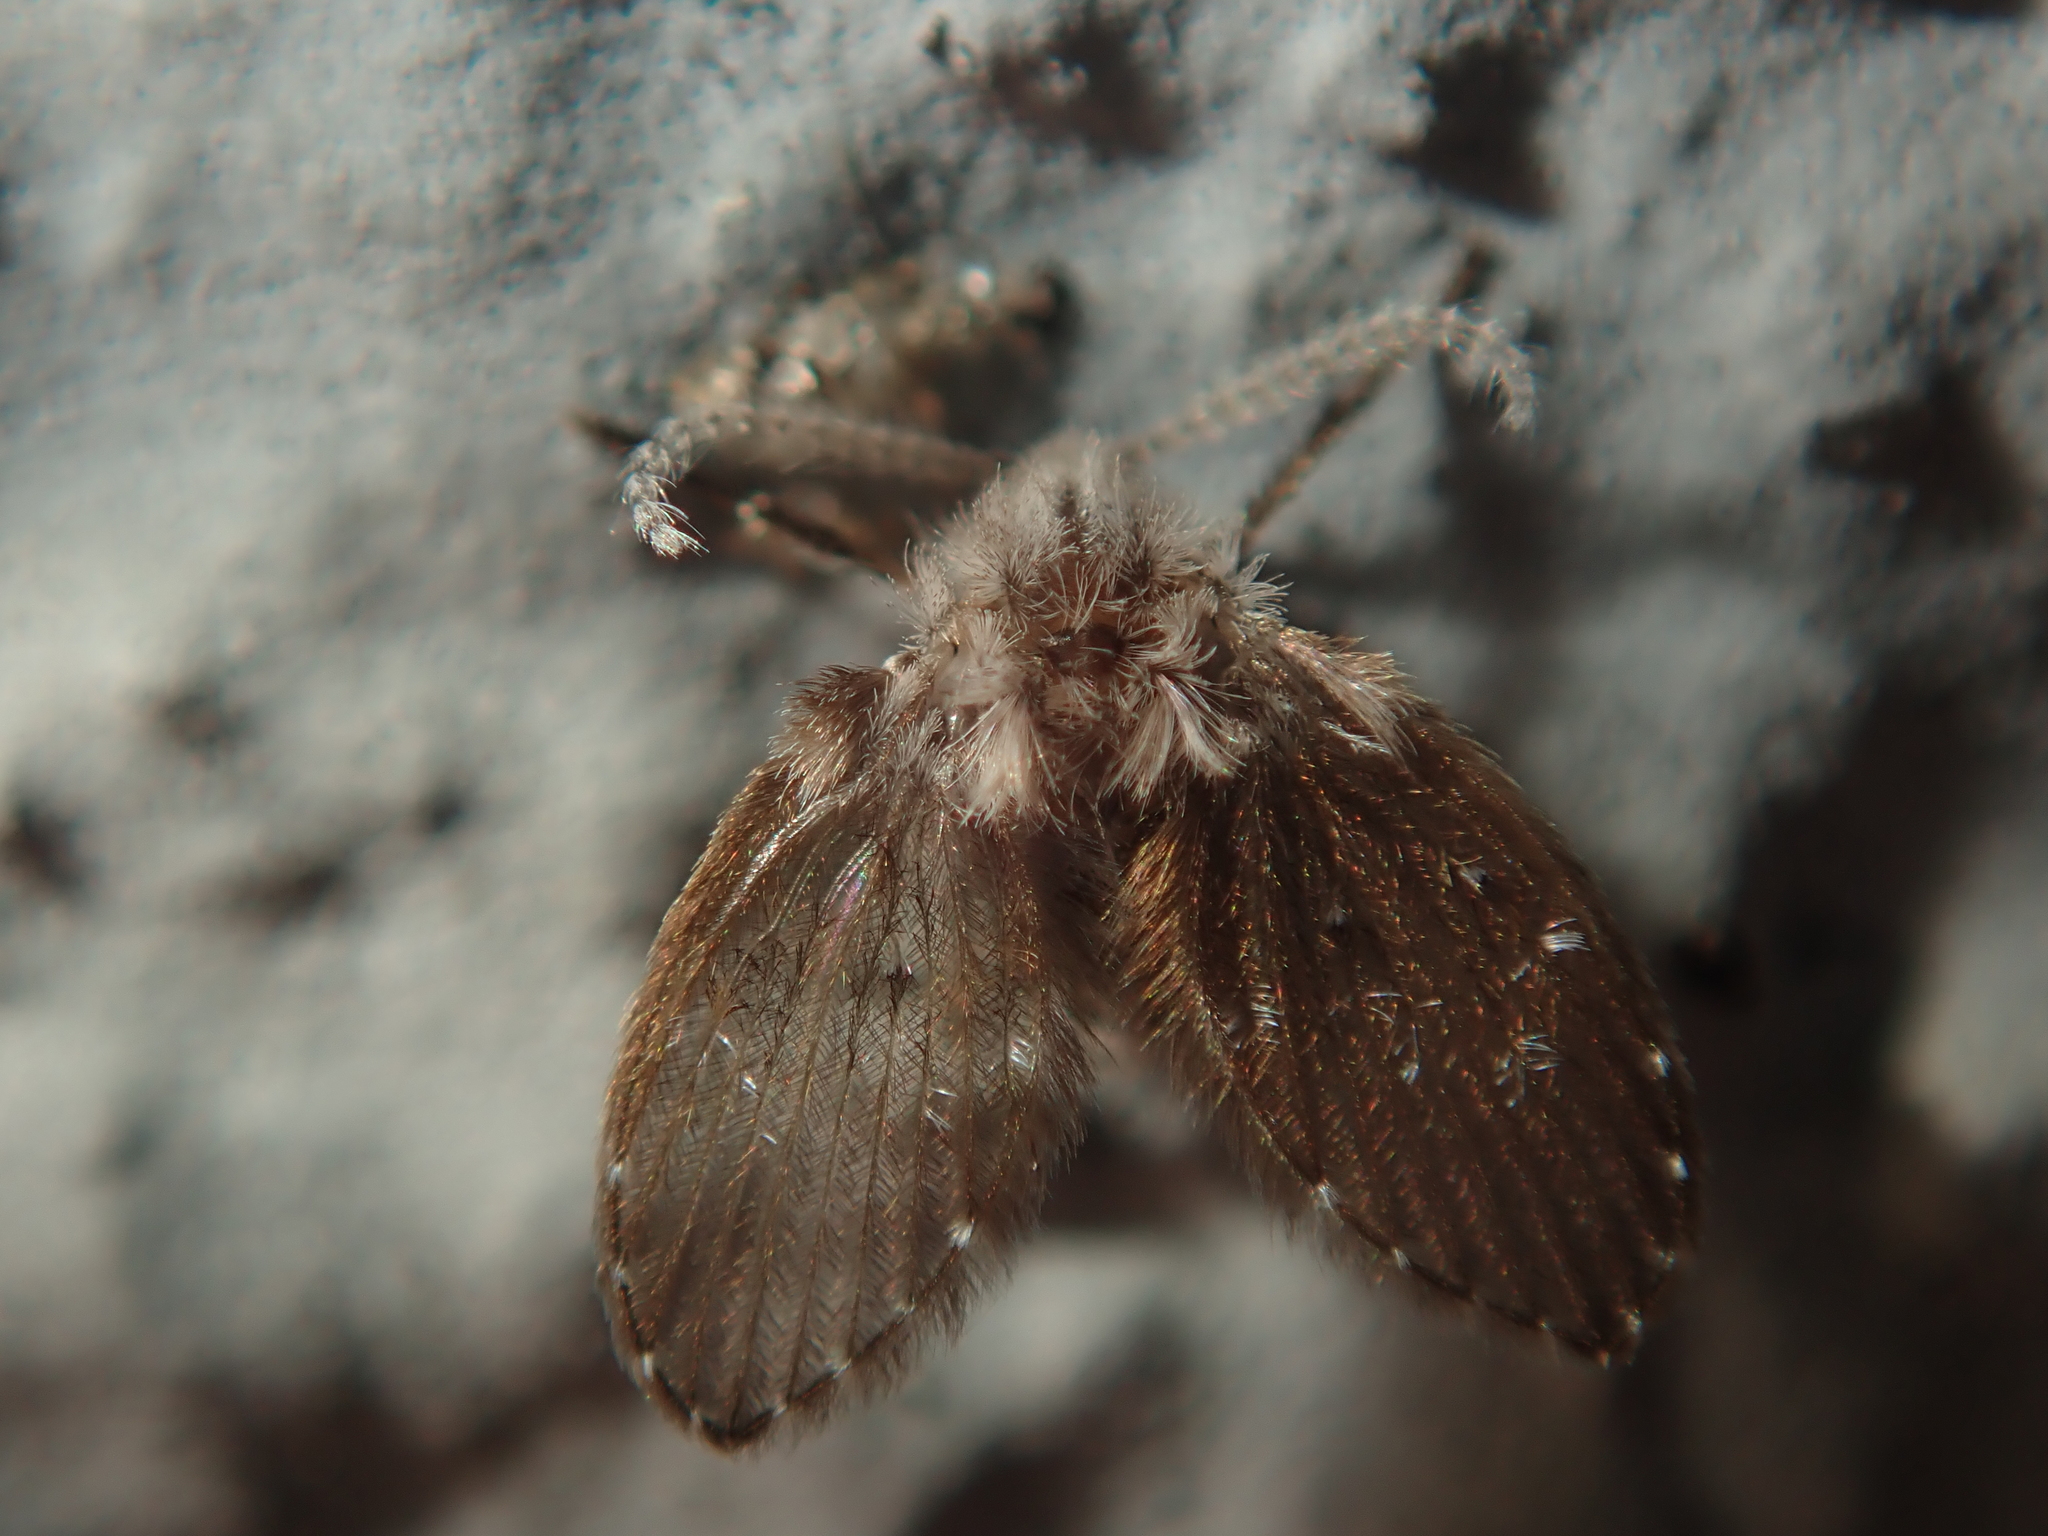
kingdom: Animalia
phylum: Arthropoda
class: Insecta
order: Diptera
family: Psychodidae
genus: Clogmia
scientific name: Clogmia albipunctatus
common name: White-spotted moth fly
